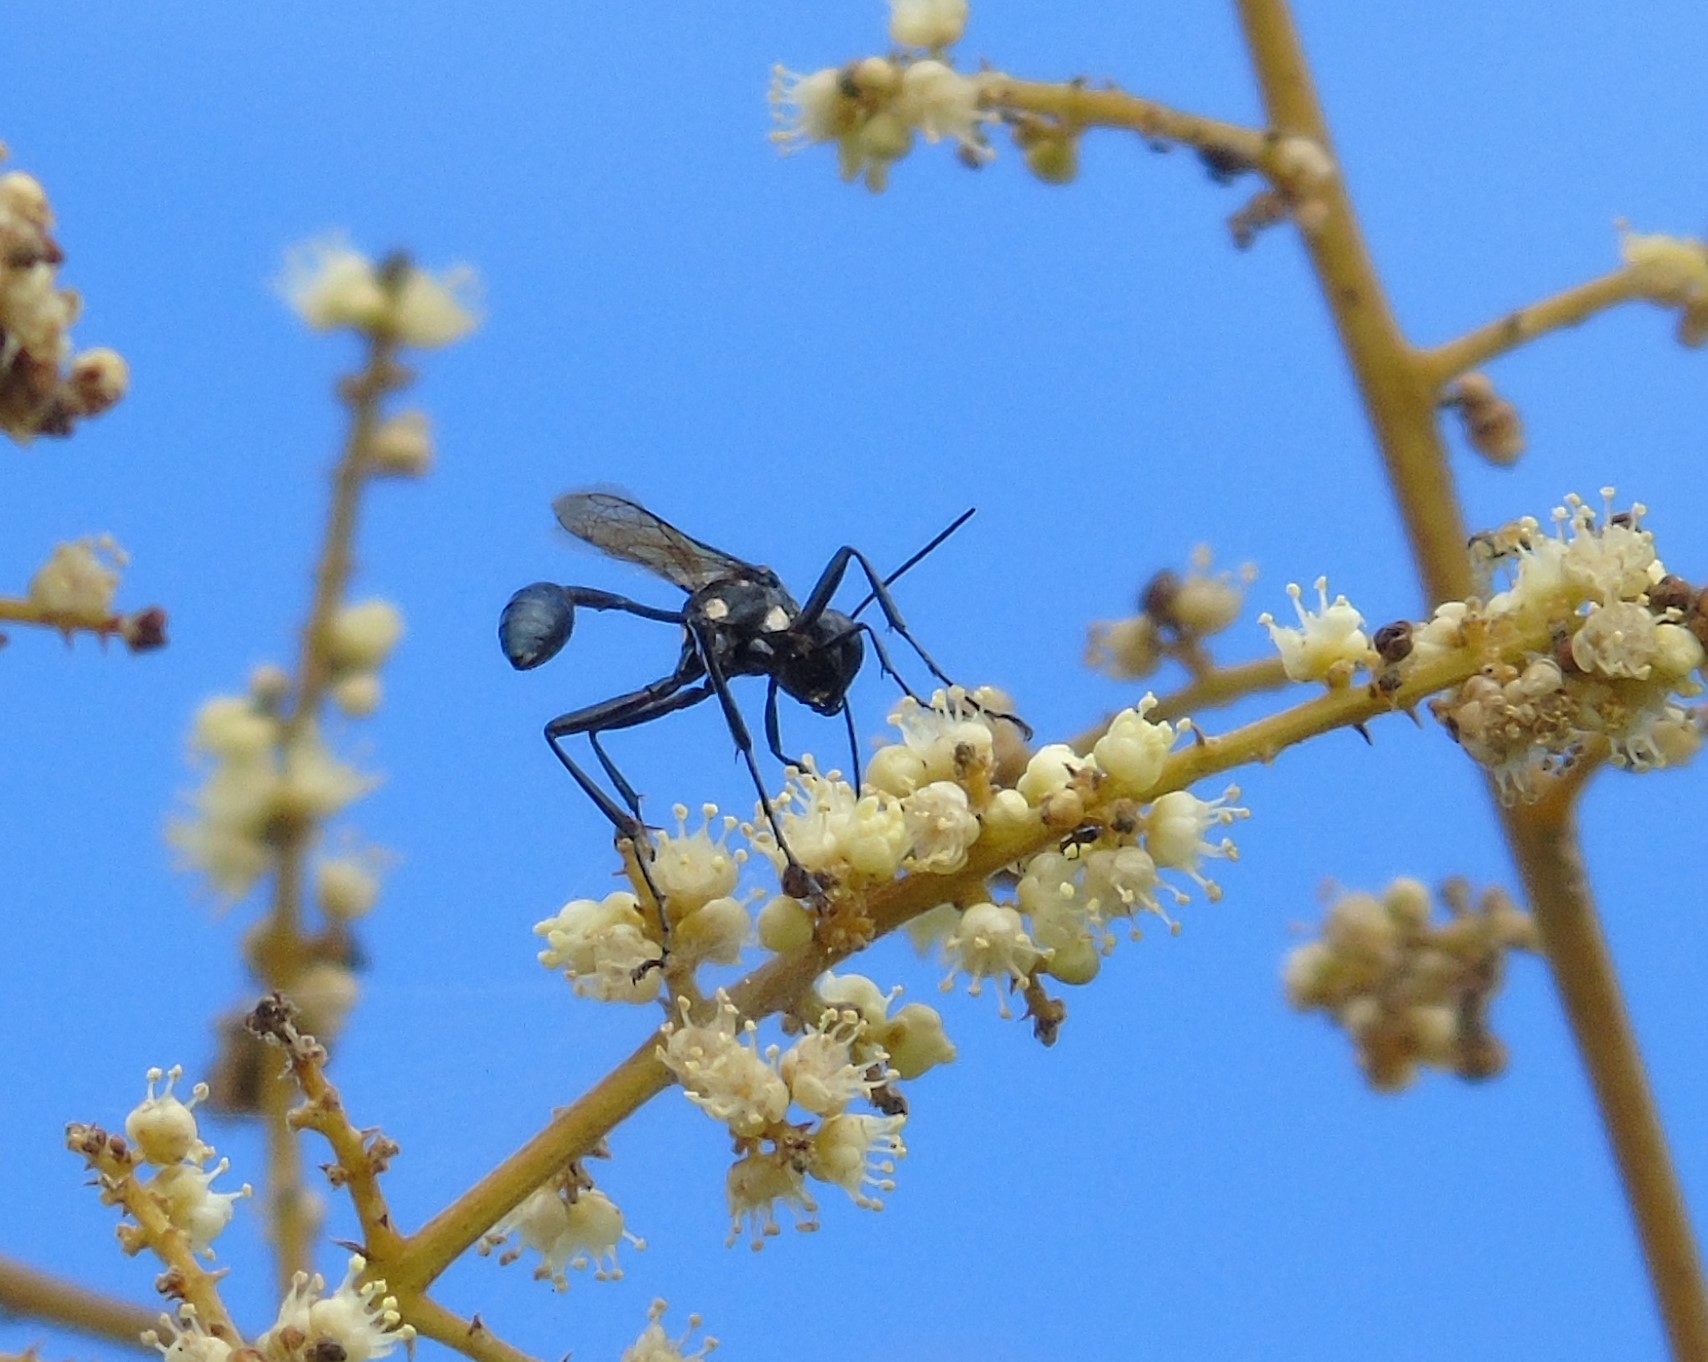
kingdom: Animalia
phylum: Arthropoda
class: Insecta
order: Hymenoptera
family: Sphecidae
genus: Eremnophila
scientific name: Eremnophila
